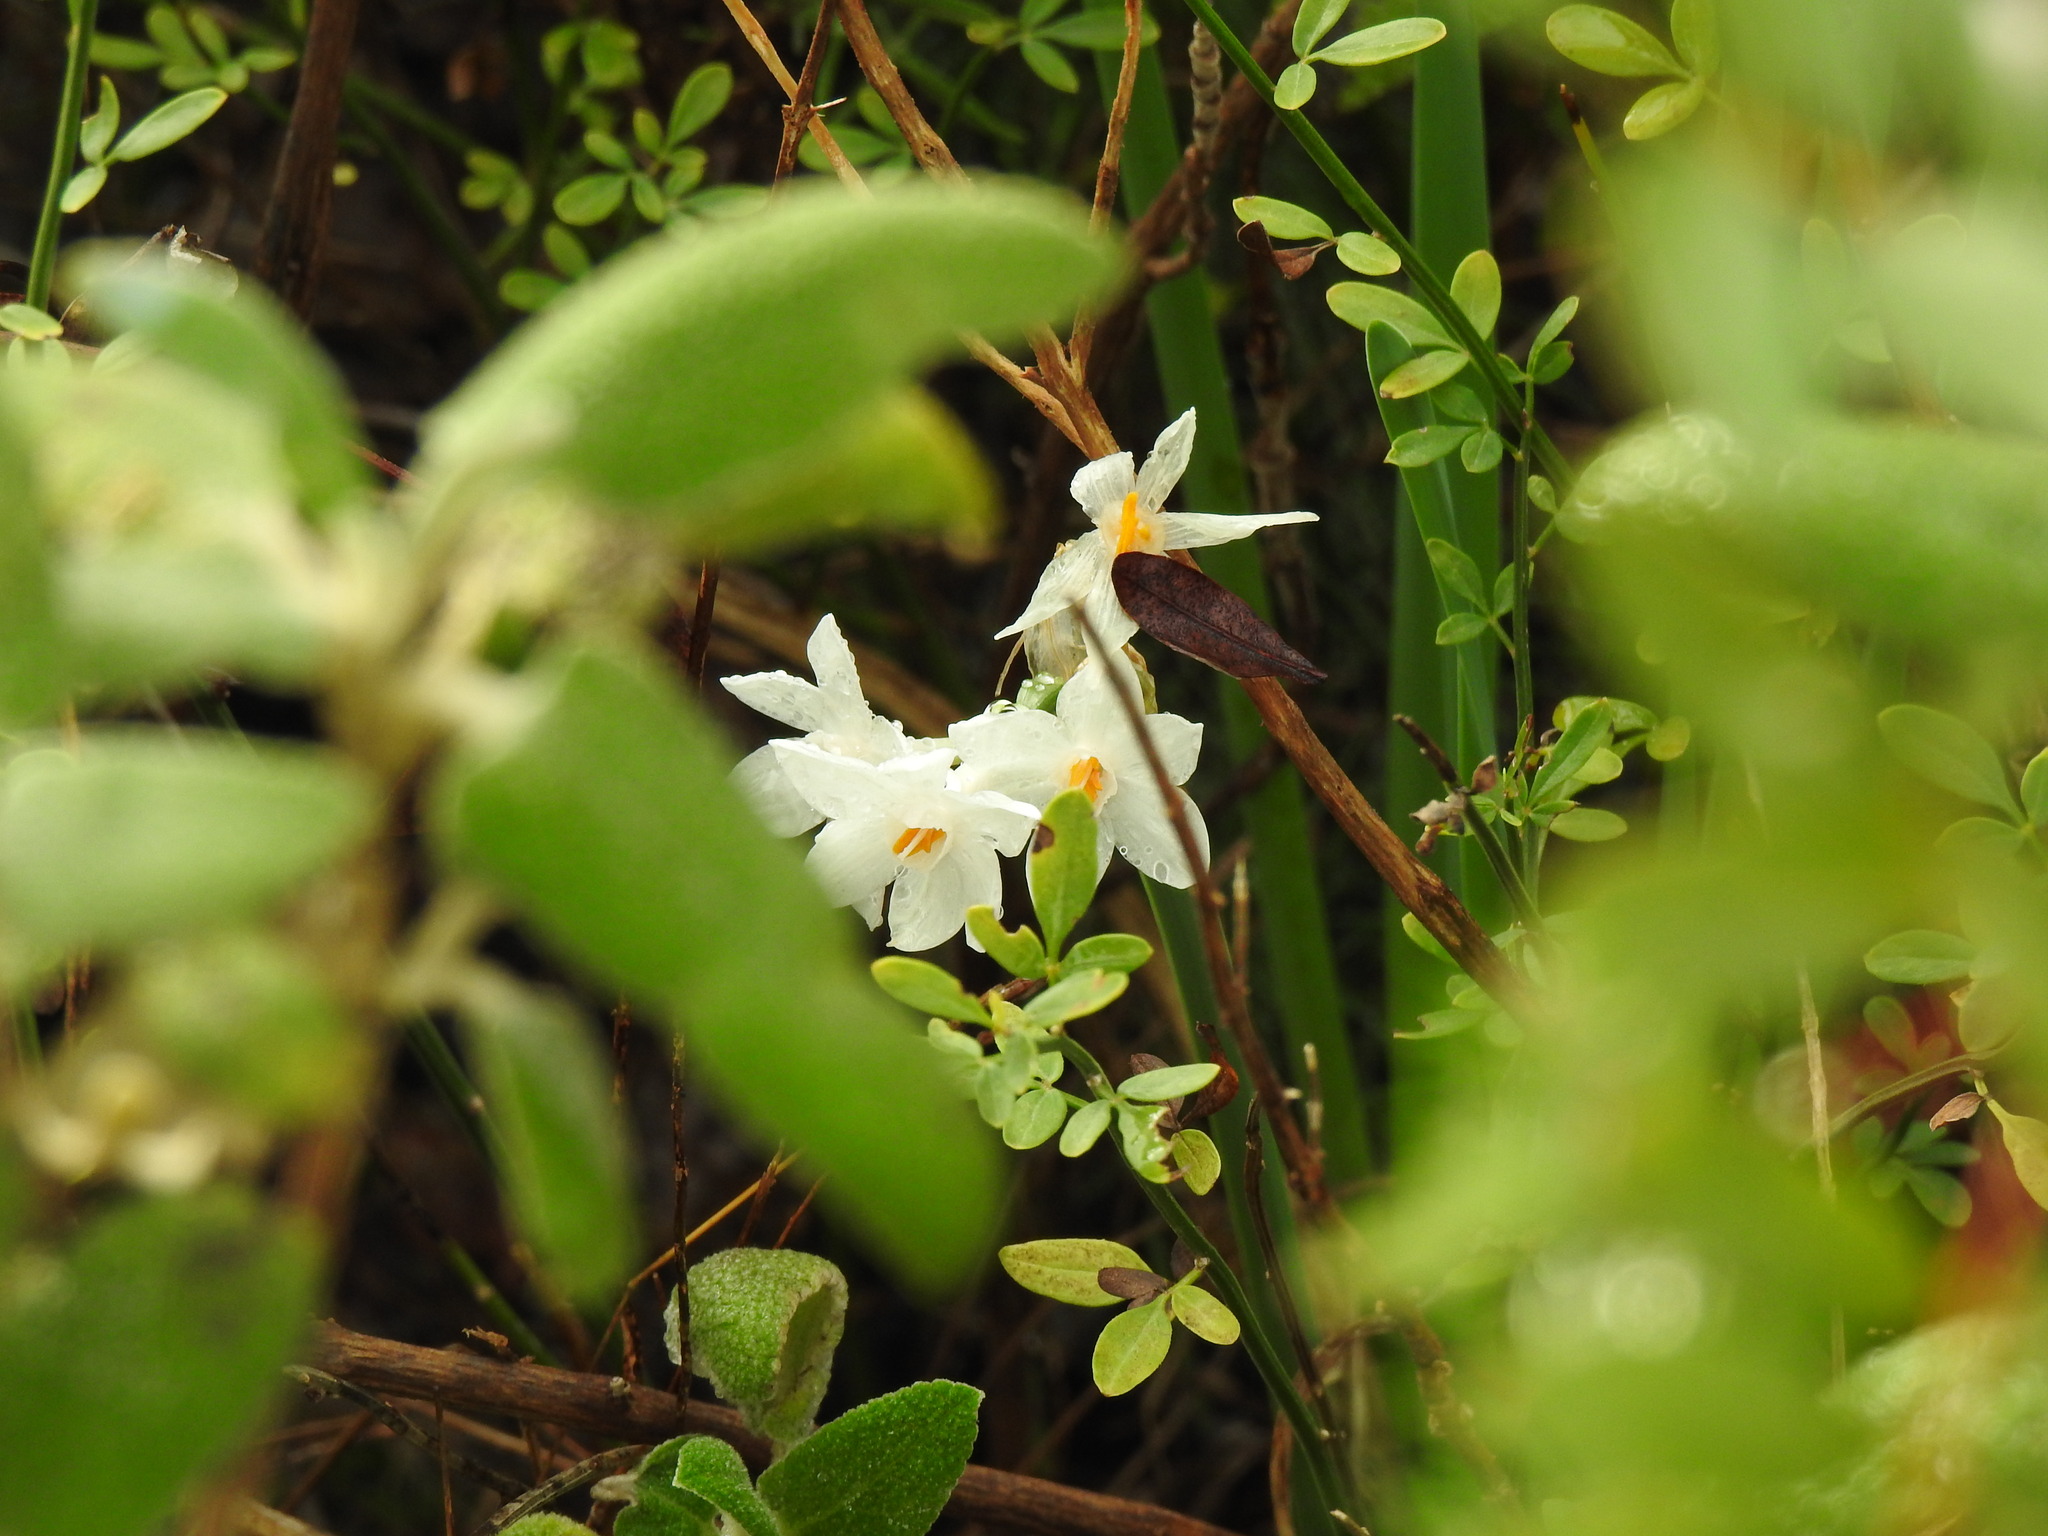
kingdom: Plantae
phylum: Tracheophyta
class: Liliopsida
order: Asparagales
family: Amaryllidaceae
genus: Narcissus
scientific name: Narcissus papyraceus
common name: Paper-white daffodil
